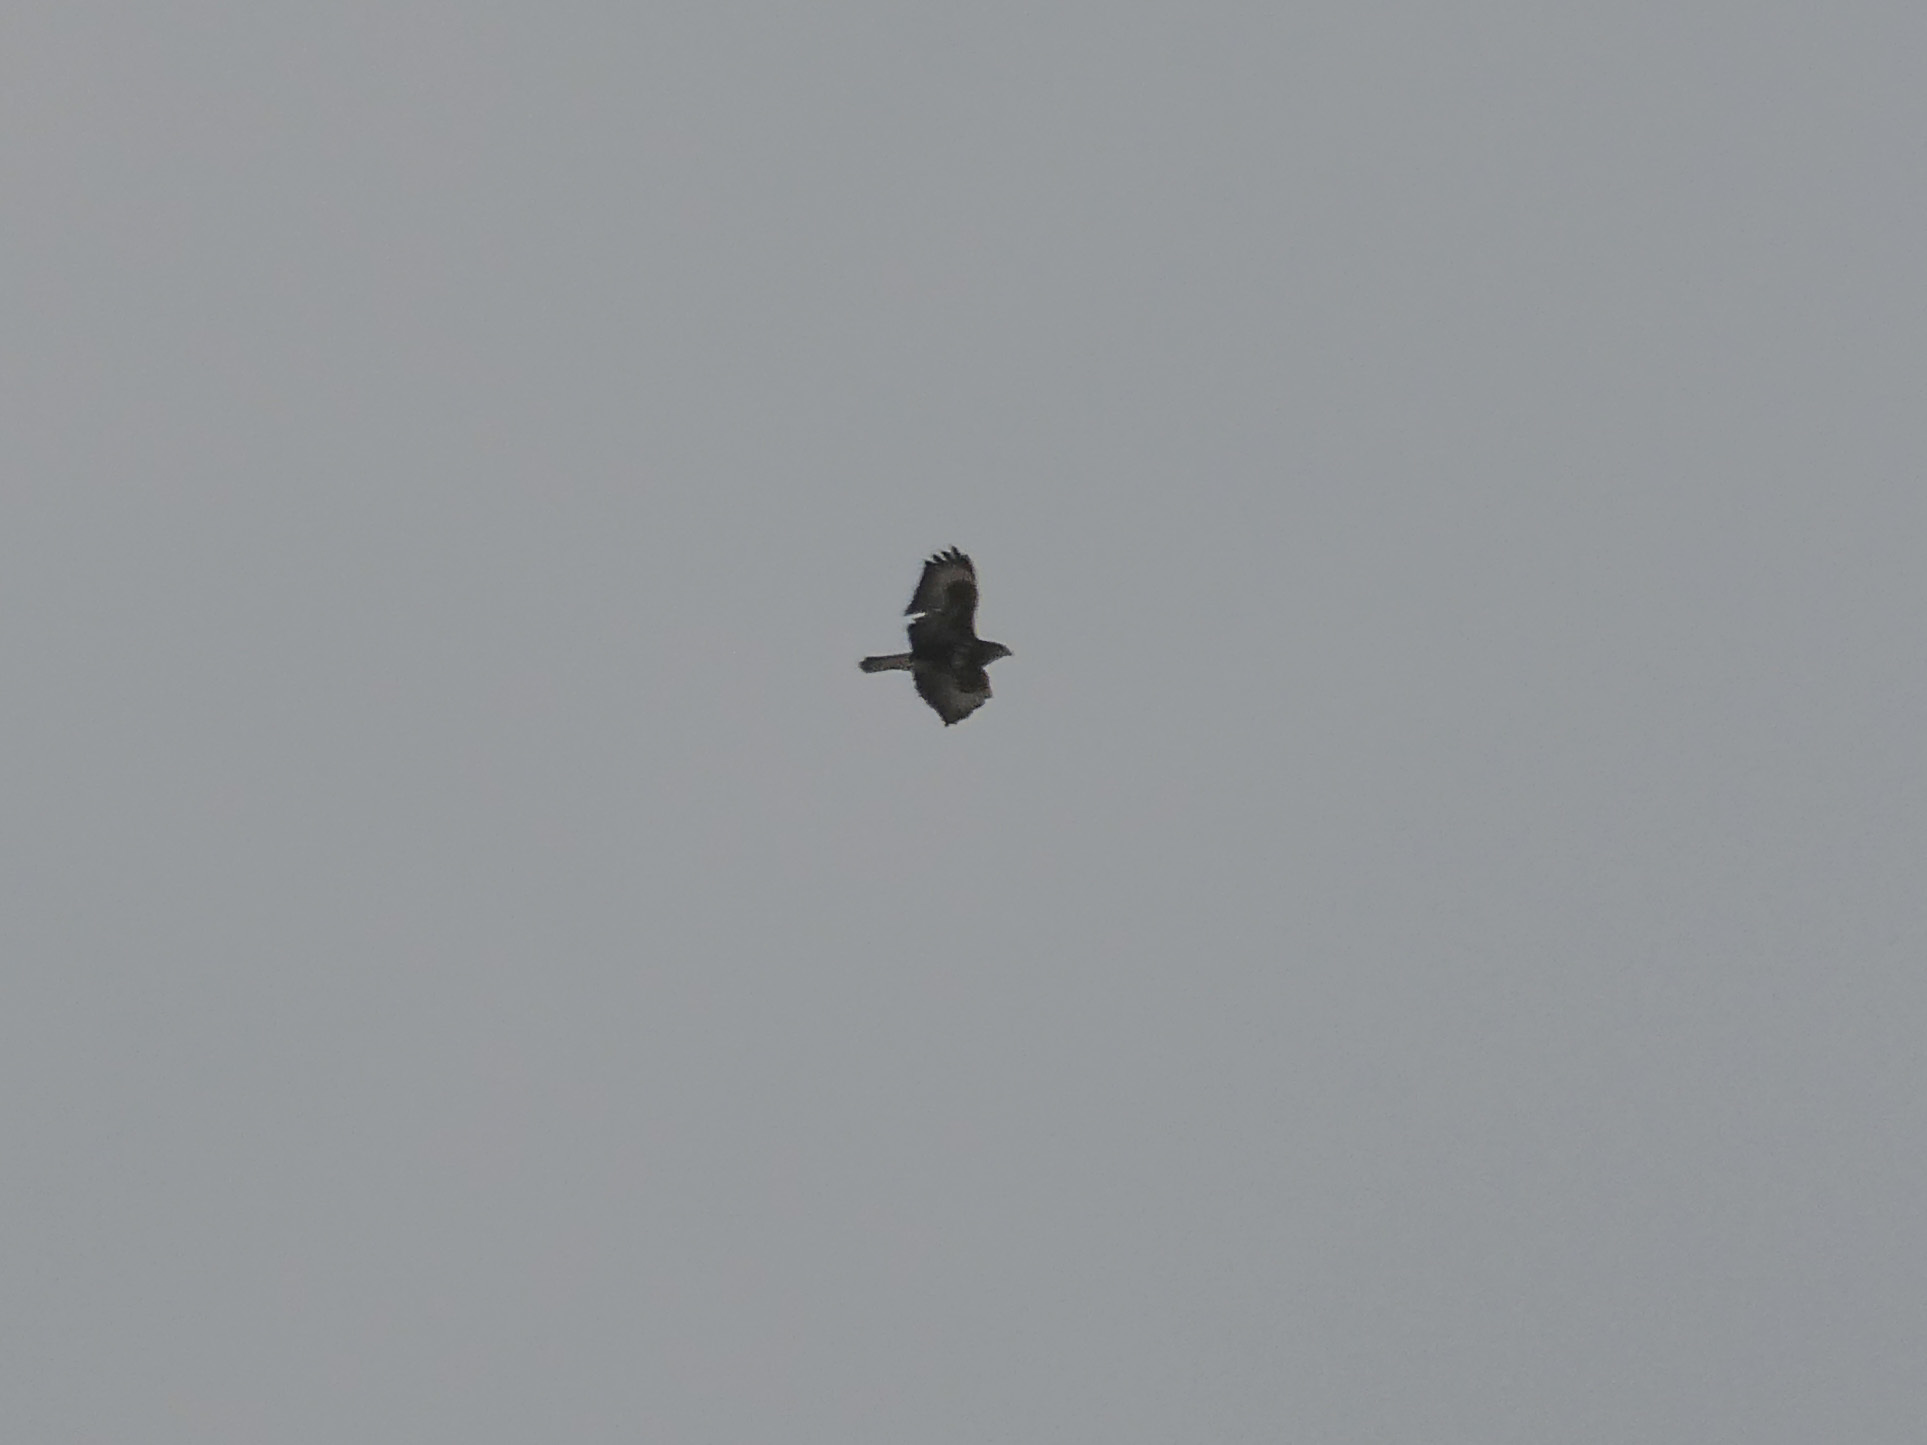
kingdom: Animalia
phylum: Chordata
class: Aves
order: Accipitriformes
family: Accipitridae
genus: Buteo
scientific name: Buteo buteo
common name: Common buzzard
